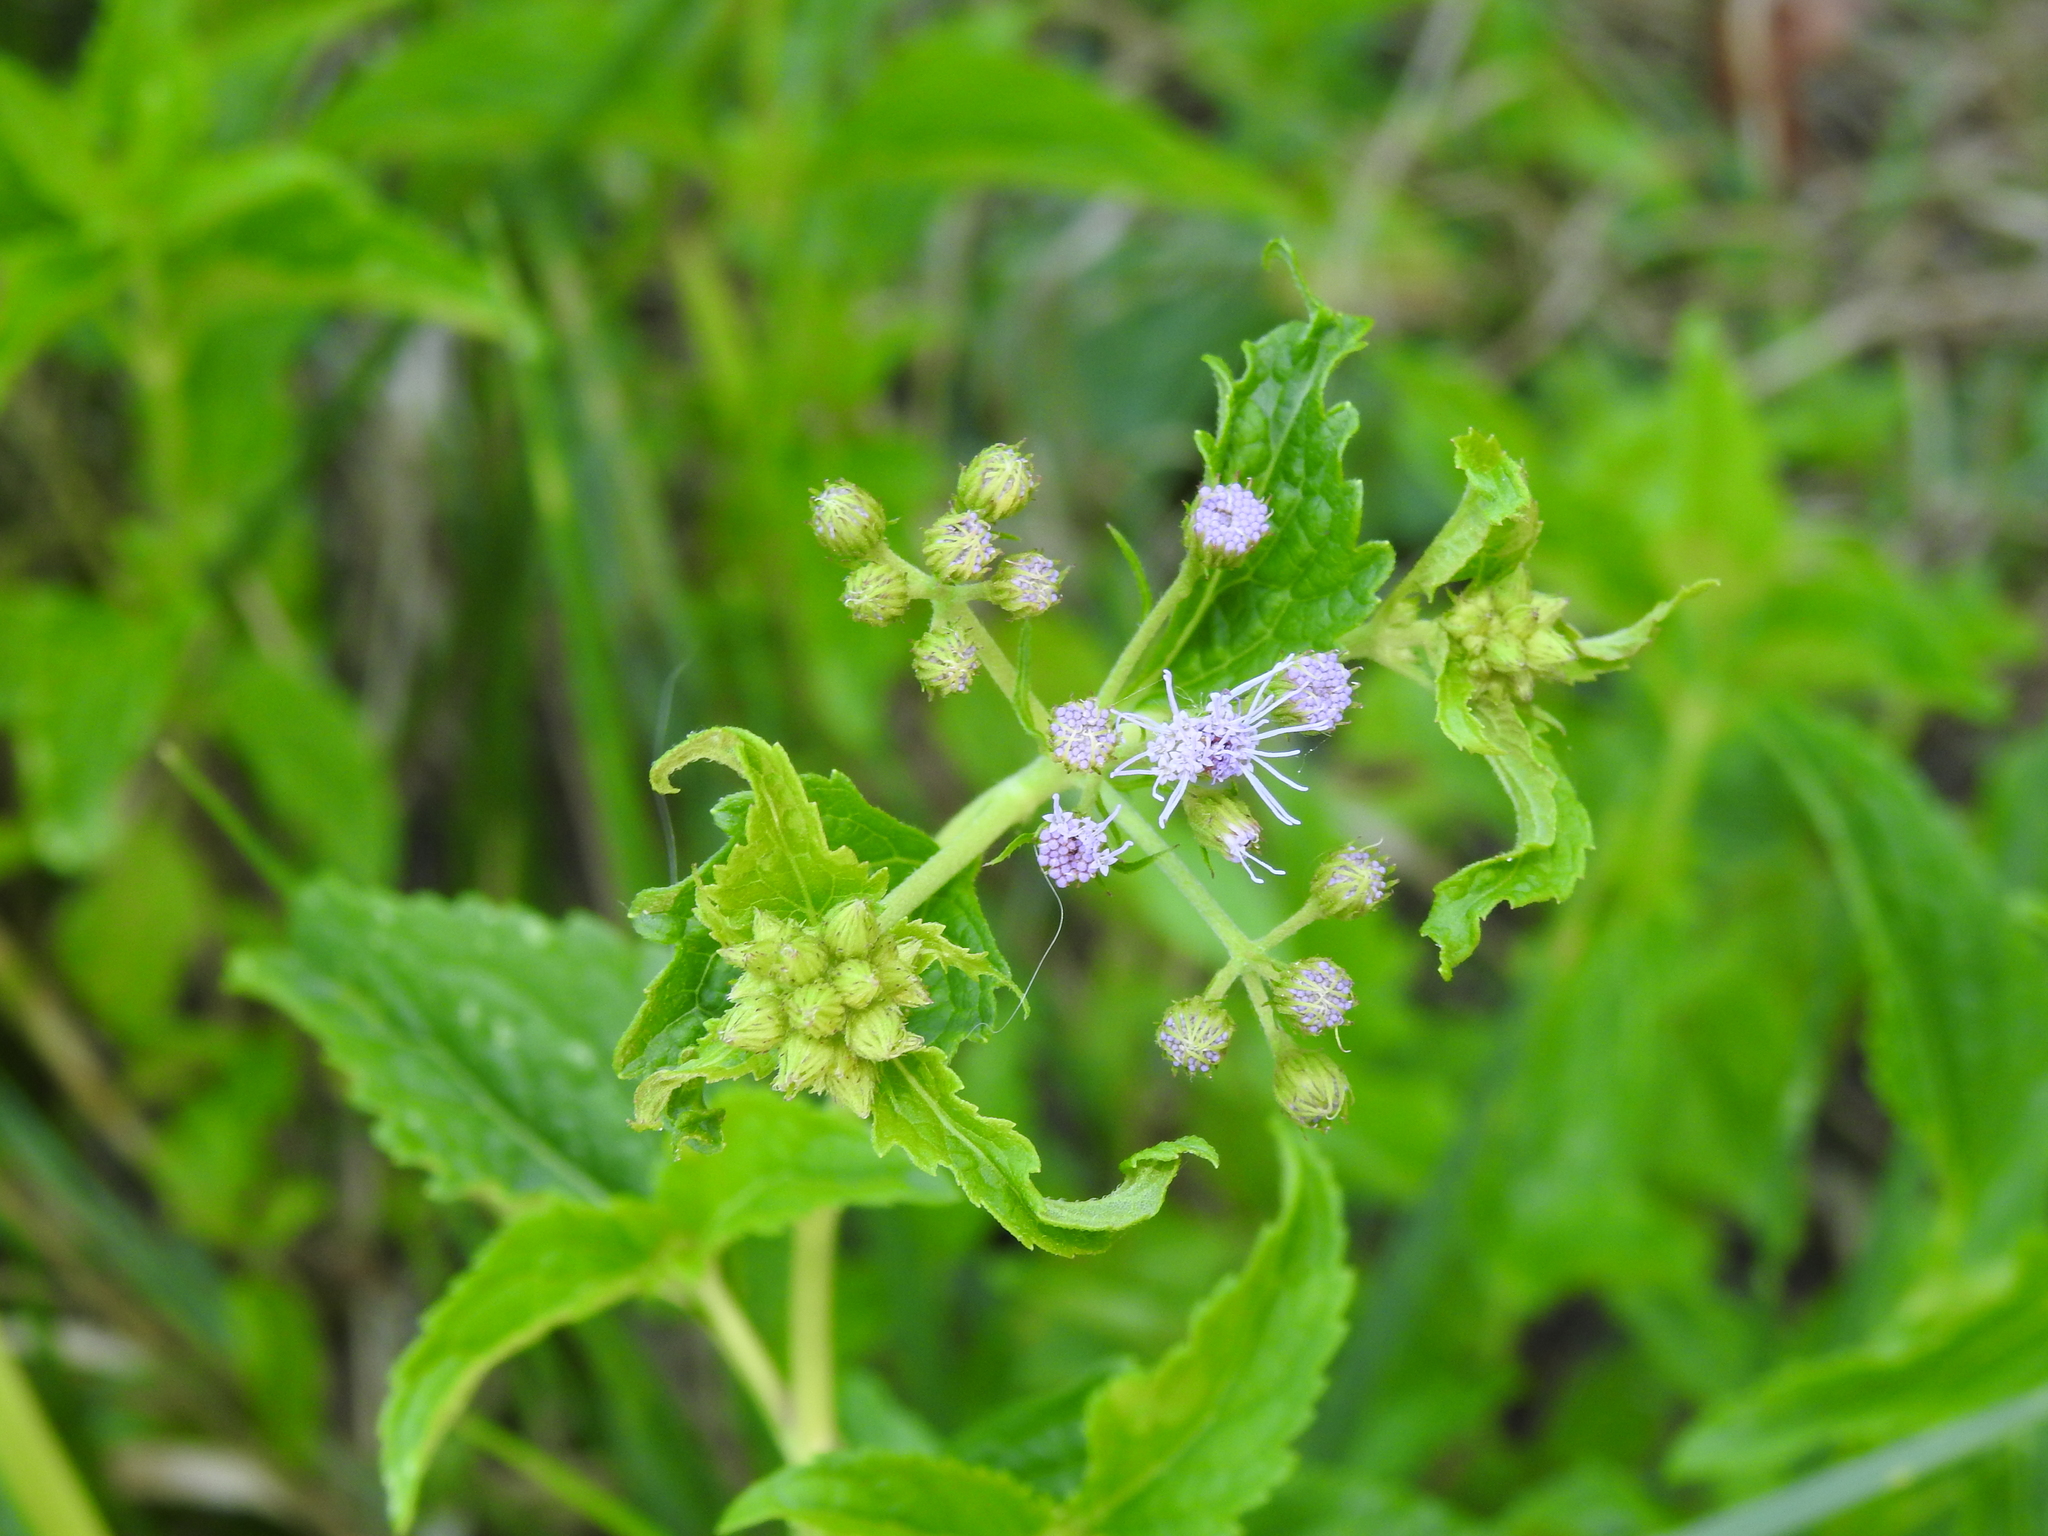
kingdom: Plantae
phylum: Tracheophyta
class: Magnoliopsida
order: Asterales
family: Asteraceae
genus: Conoclinium
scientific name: Conoclinium coelestinum
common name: Blue mistflower
